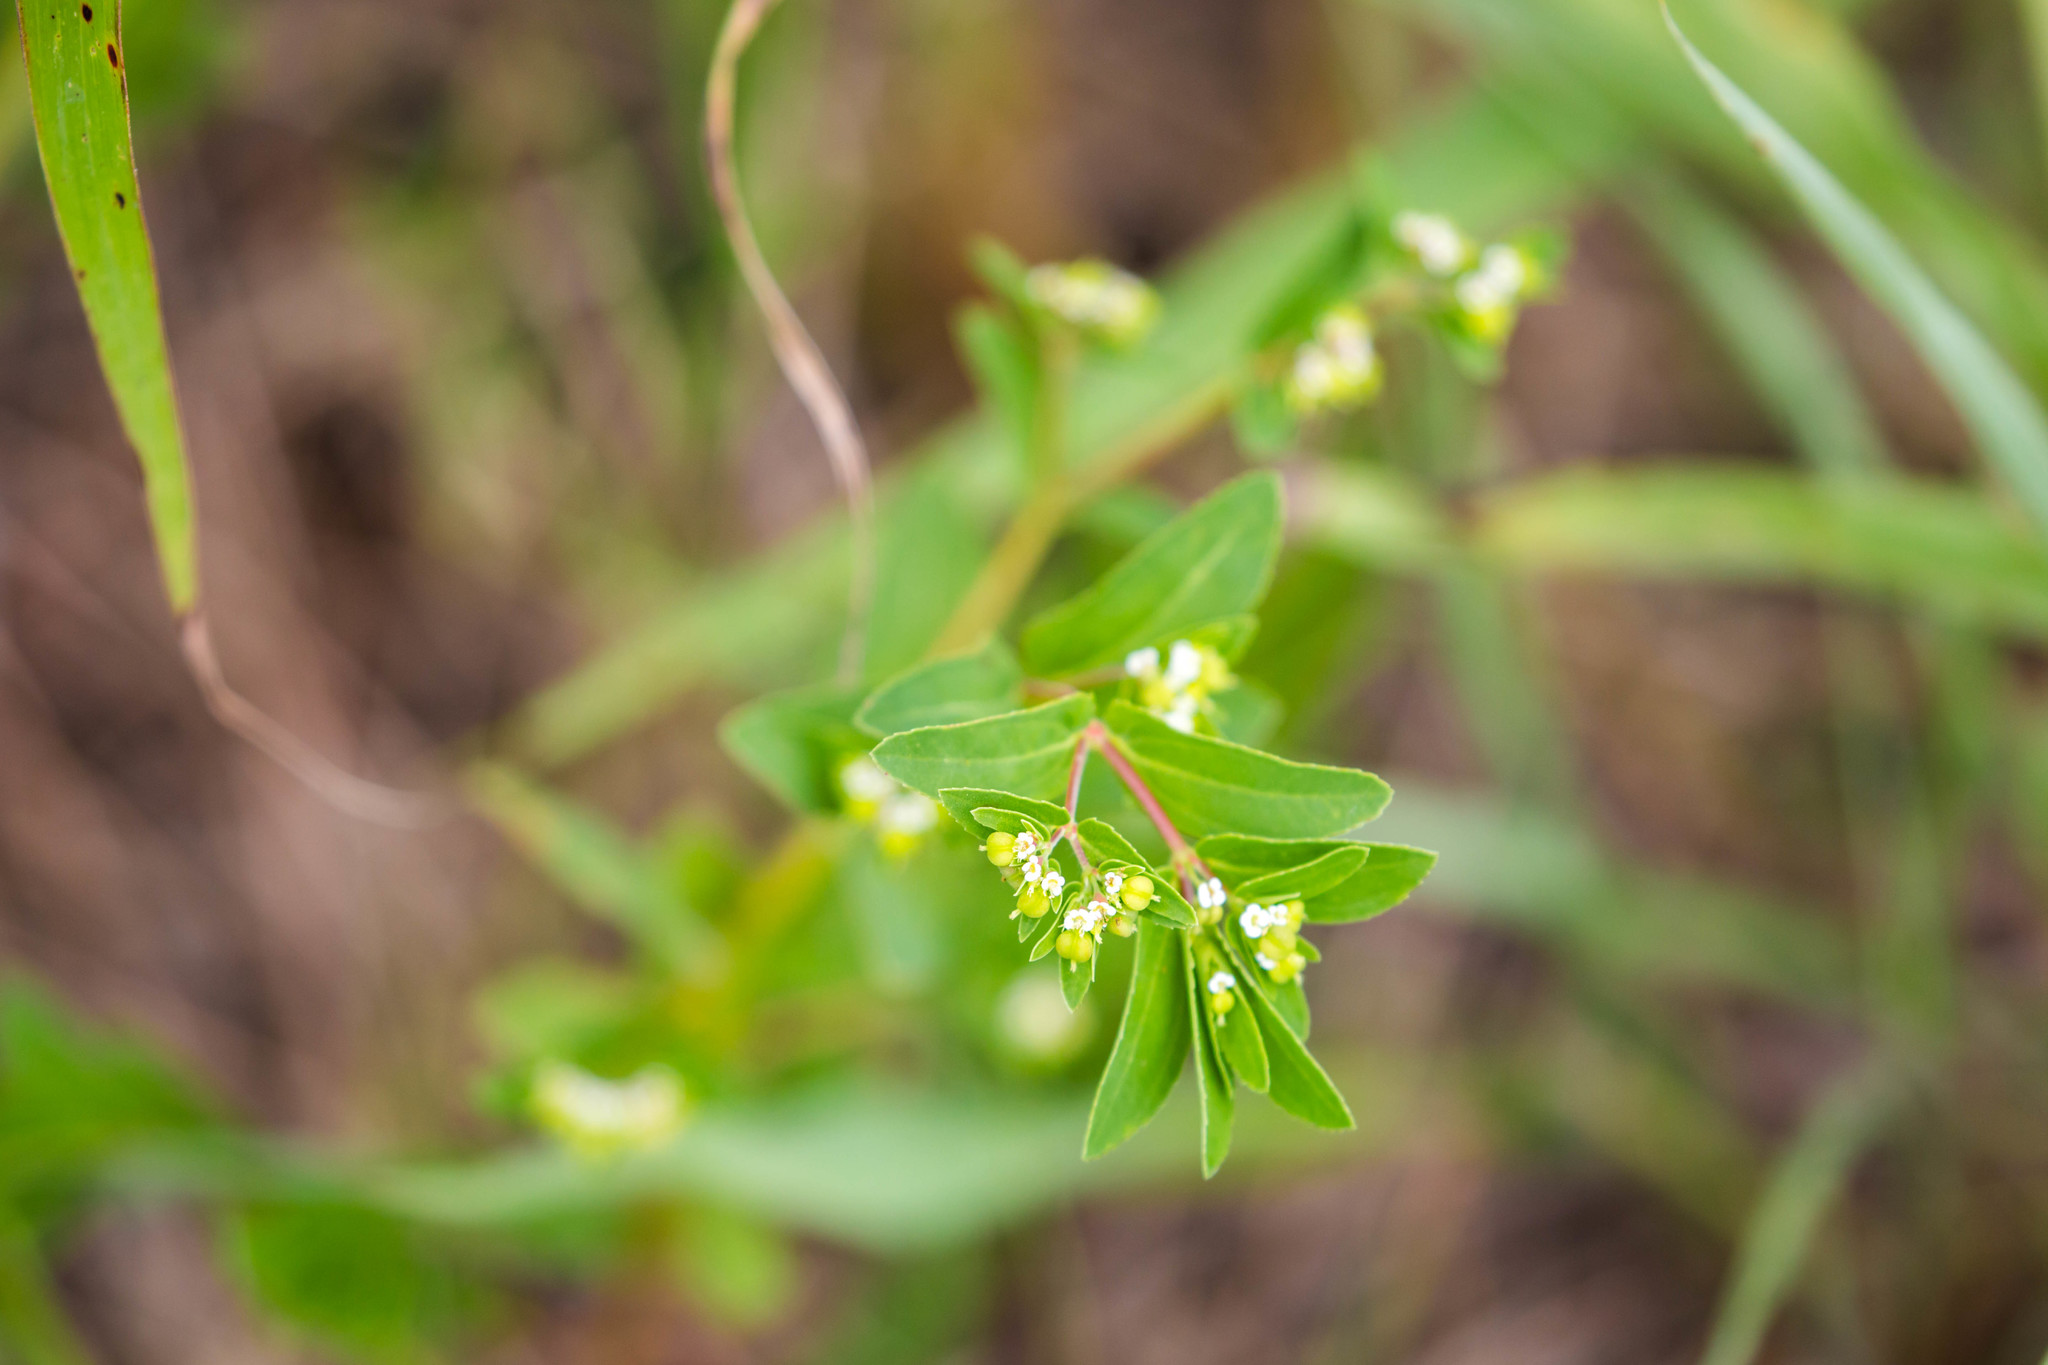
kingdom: Plantae
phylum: Tracheophyta
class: Magnoliopsida
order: Malpighiales
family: Euphorbiaceae
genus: Euphorbia
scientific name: Euphorbia nutans
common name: Eyebane
